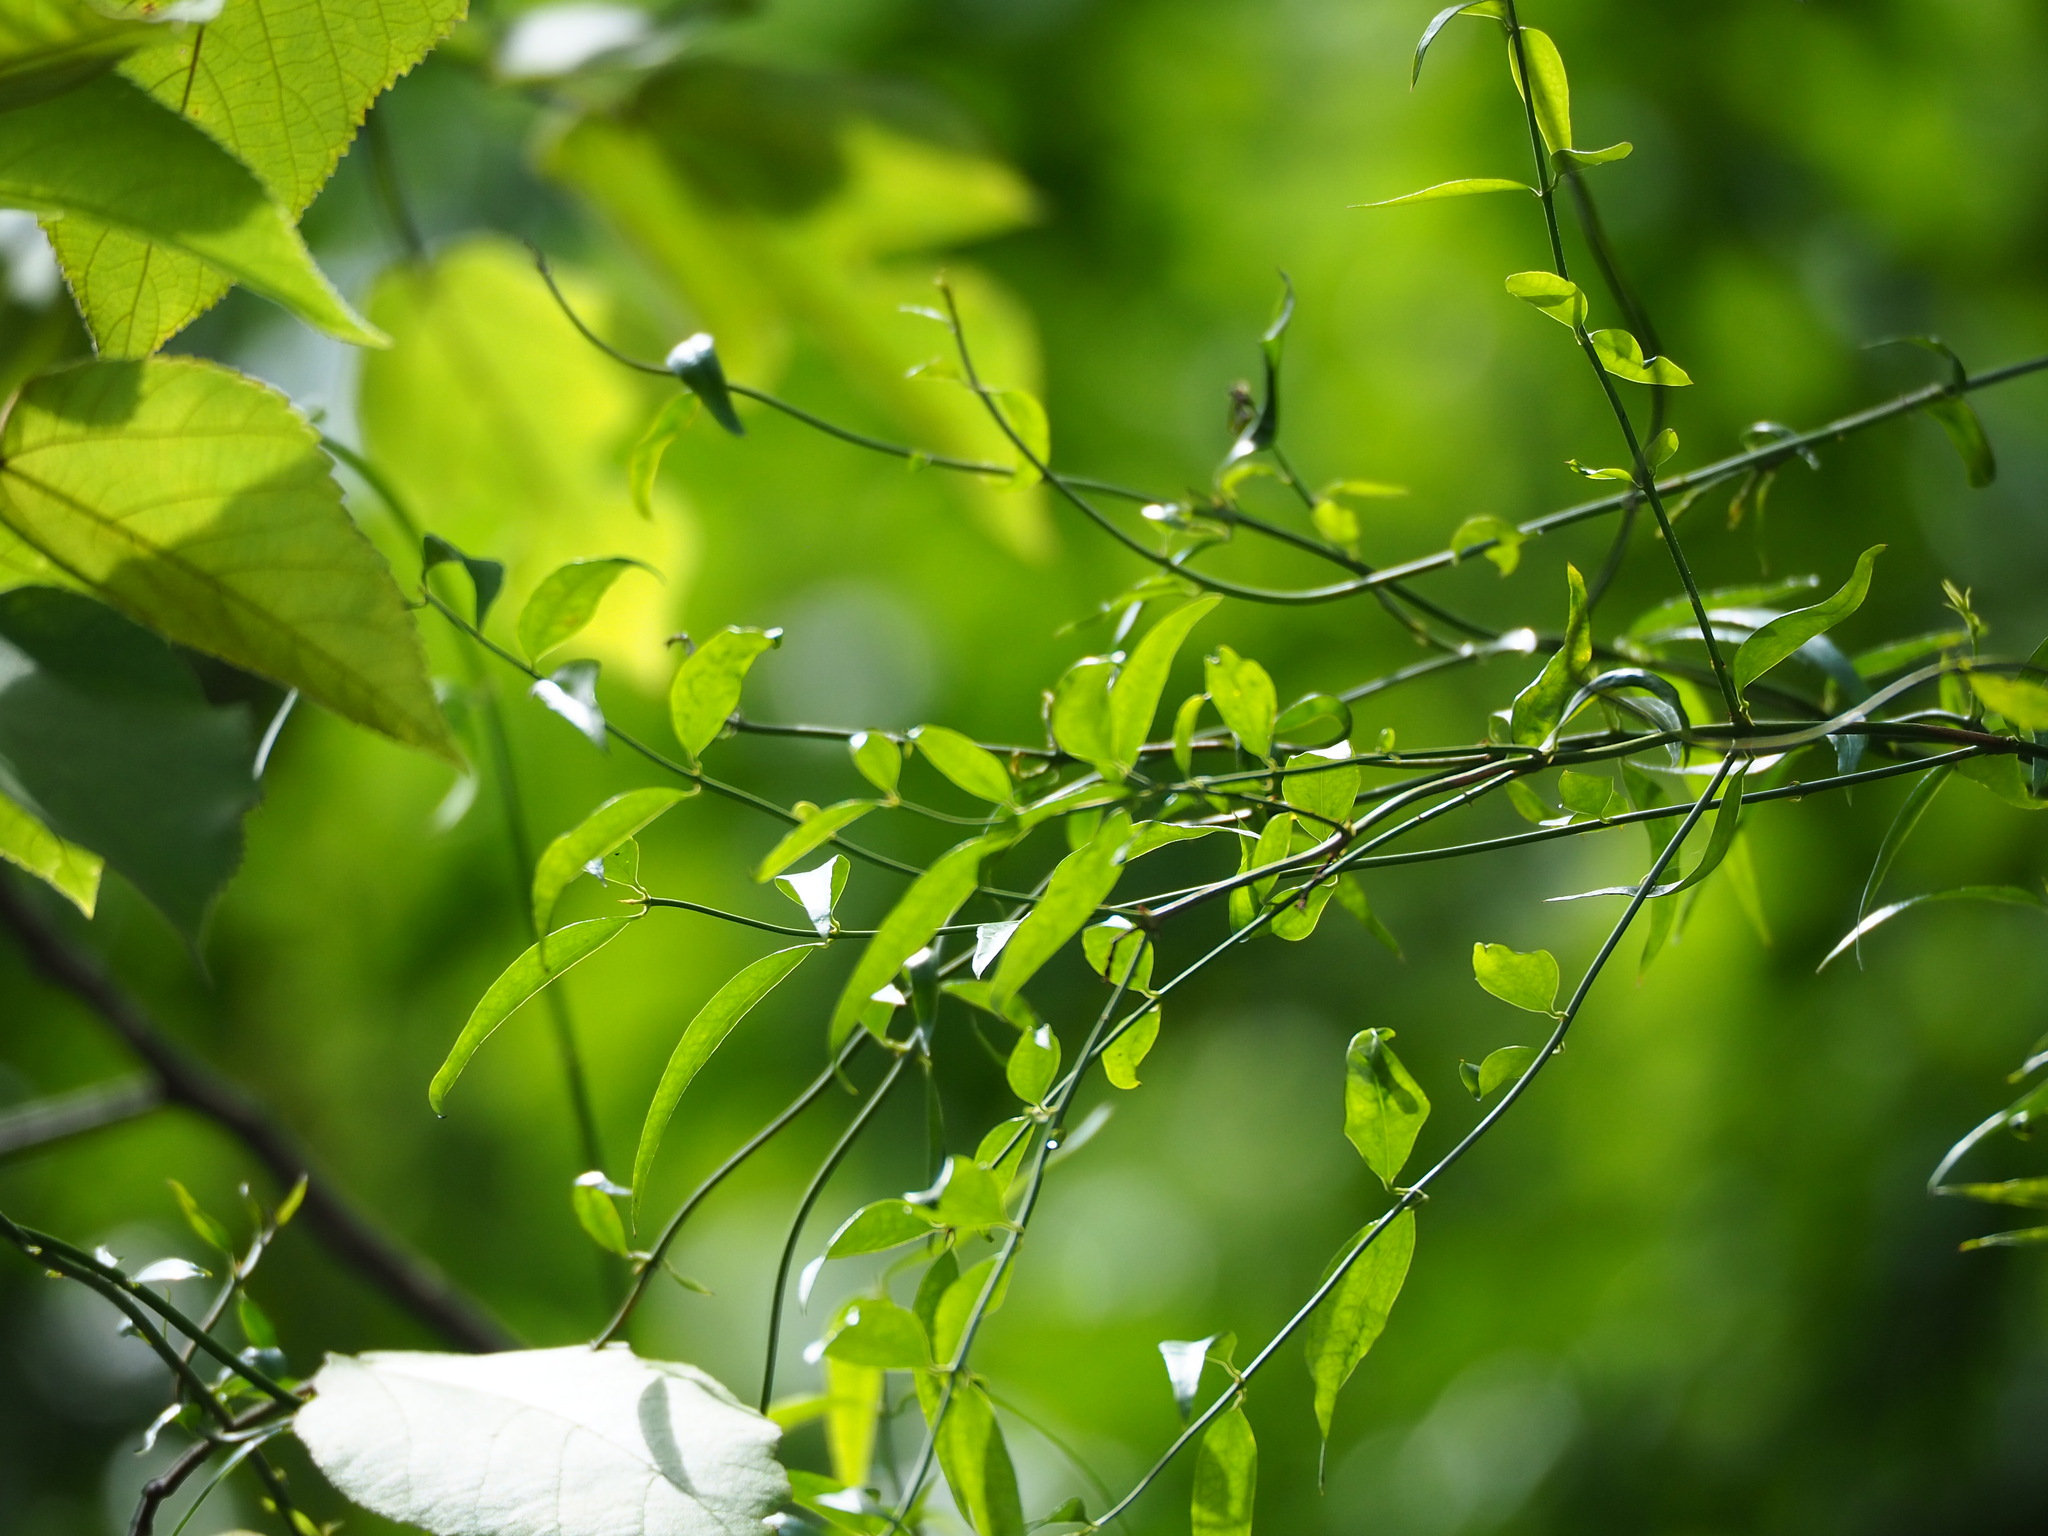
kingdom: Plantae
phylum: Tracheophyta
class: Magnoliopsida
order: Lamiales
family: Oleaceae
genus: Jasminum
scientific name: Jasminum nervosum
